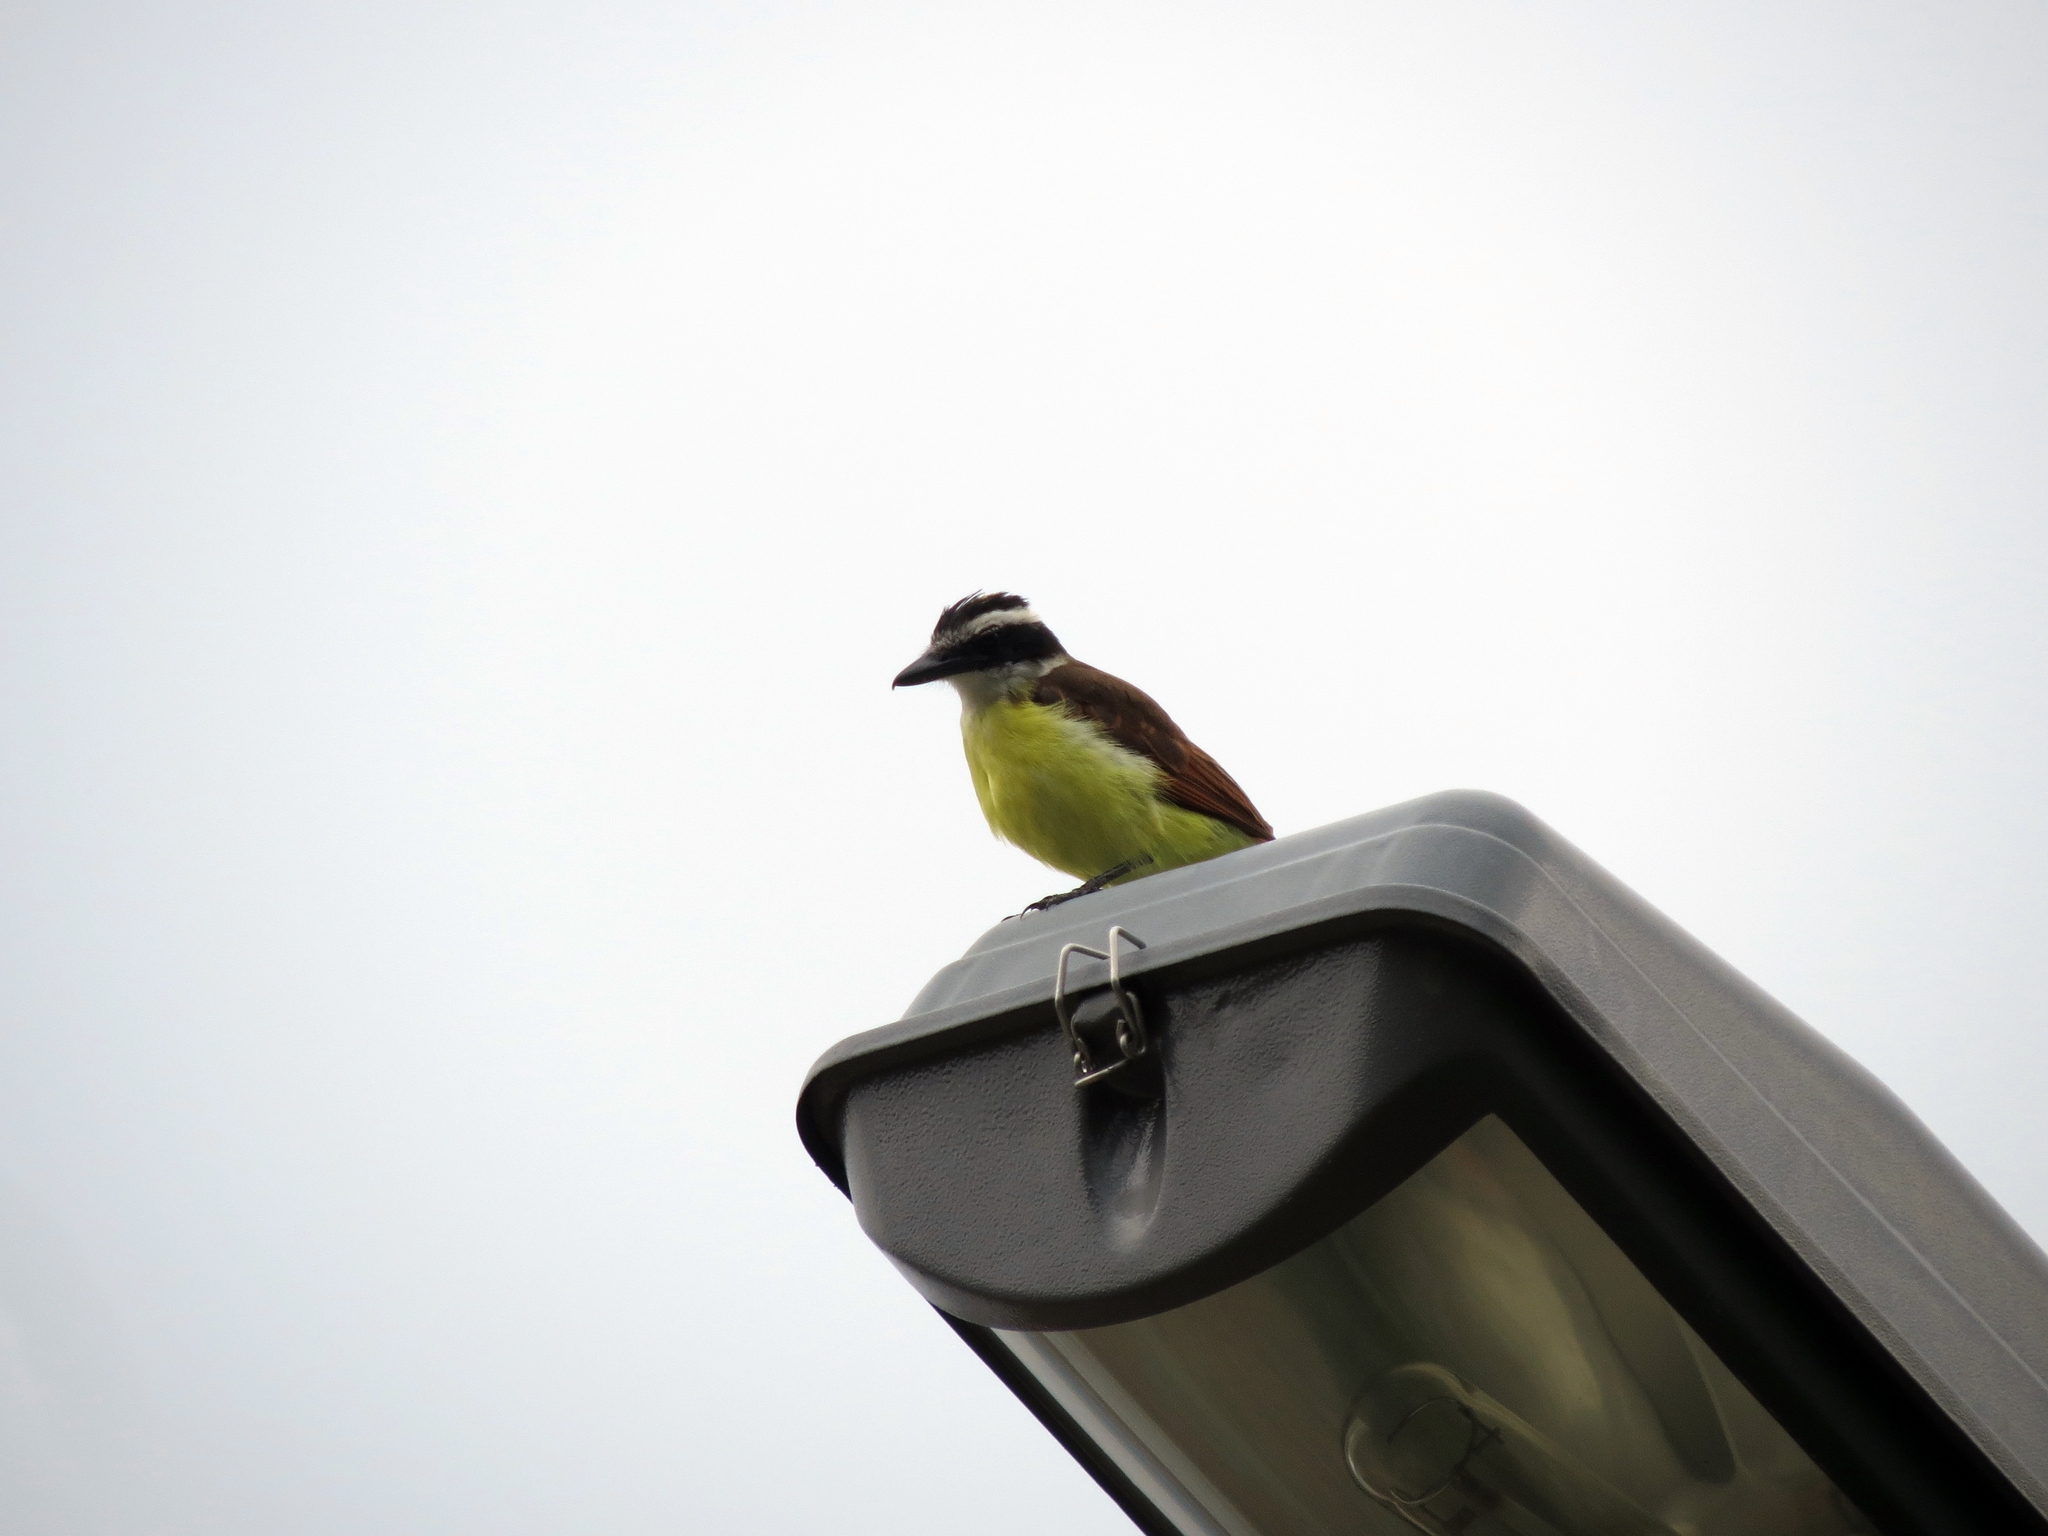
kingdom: Animalia
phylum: Chordata
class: Aves
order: Passeriformes
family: Tyrannidae
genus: Pitangus
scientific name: Pitangus sulphuratus
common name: Great kiskadee
